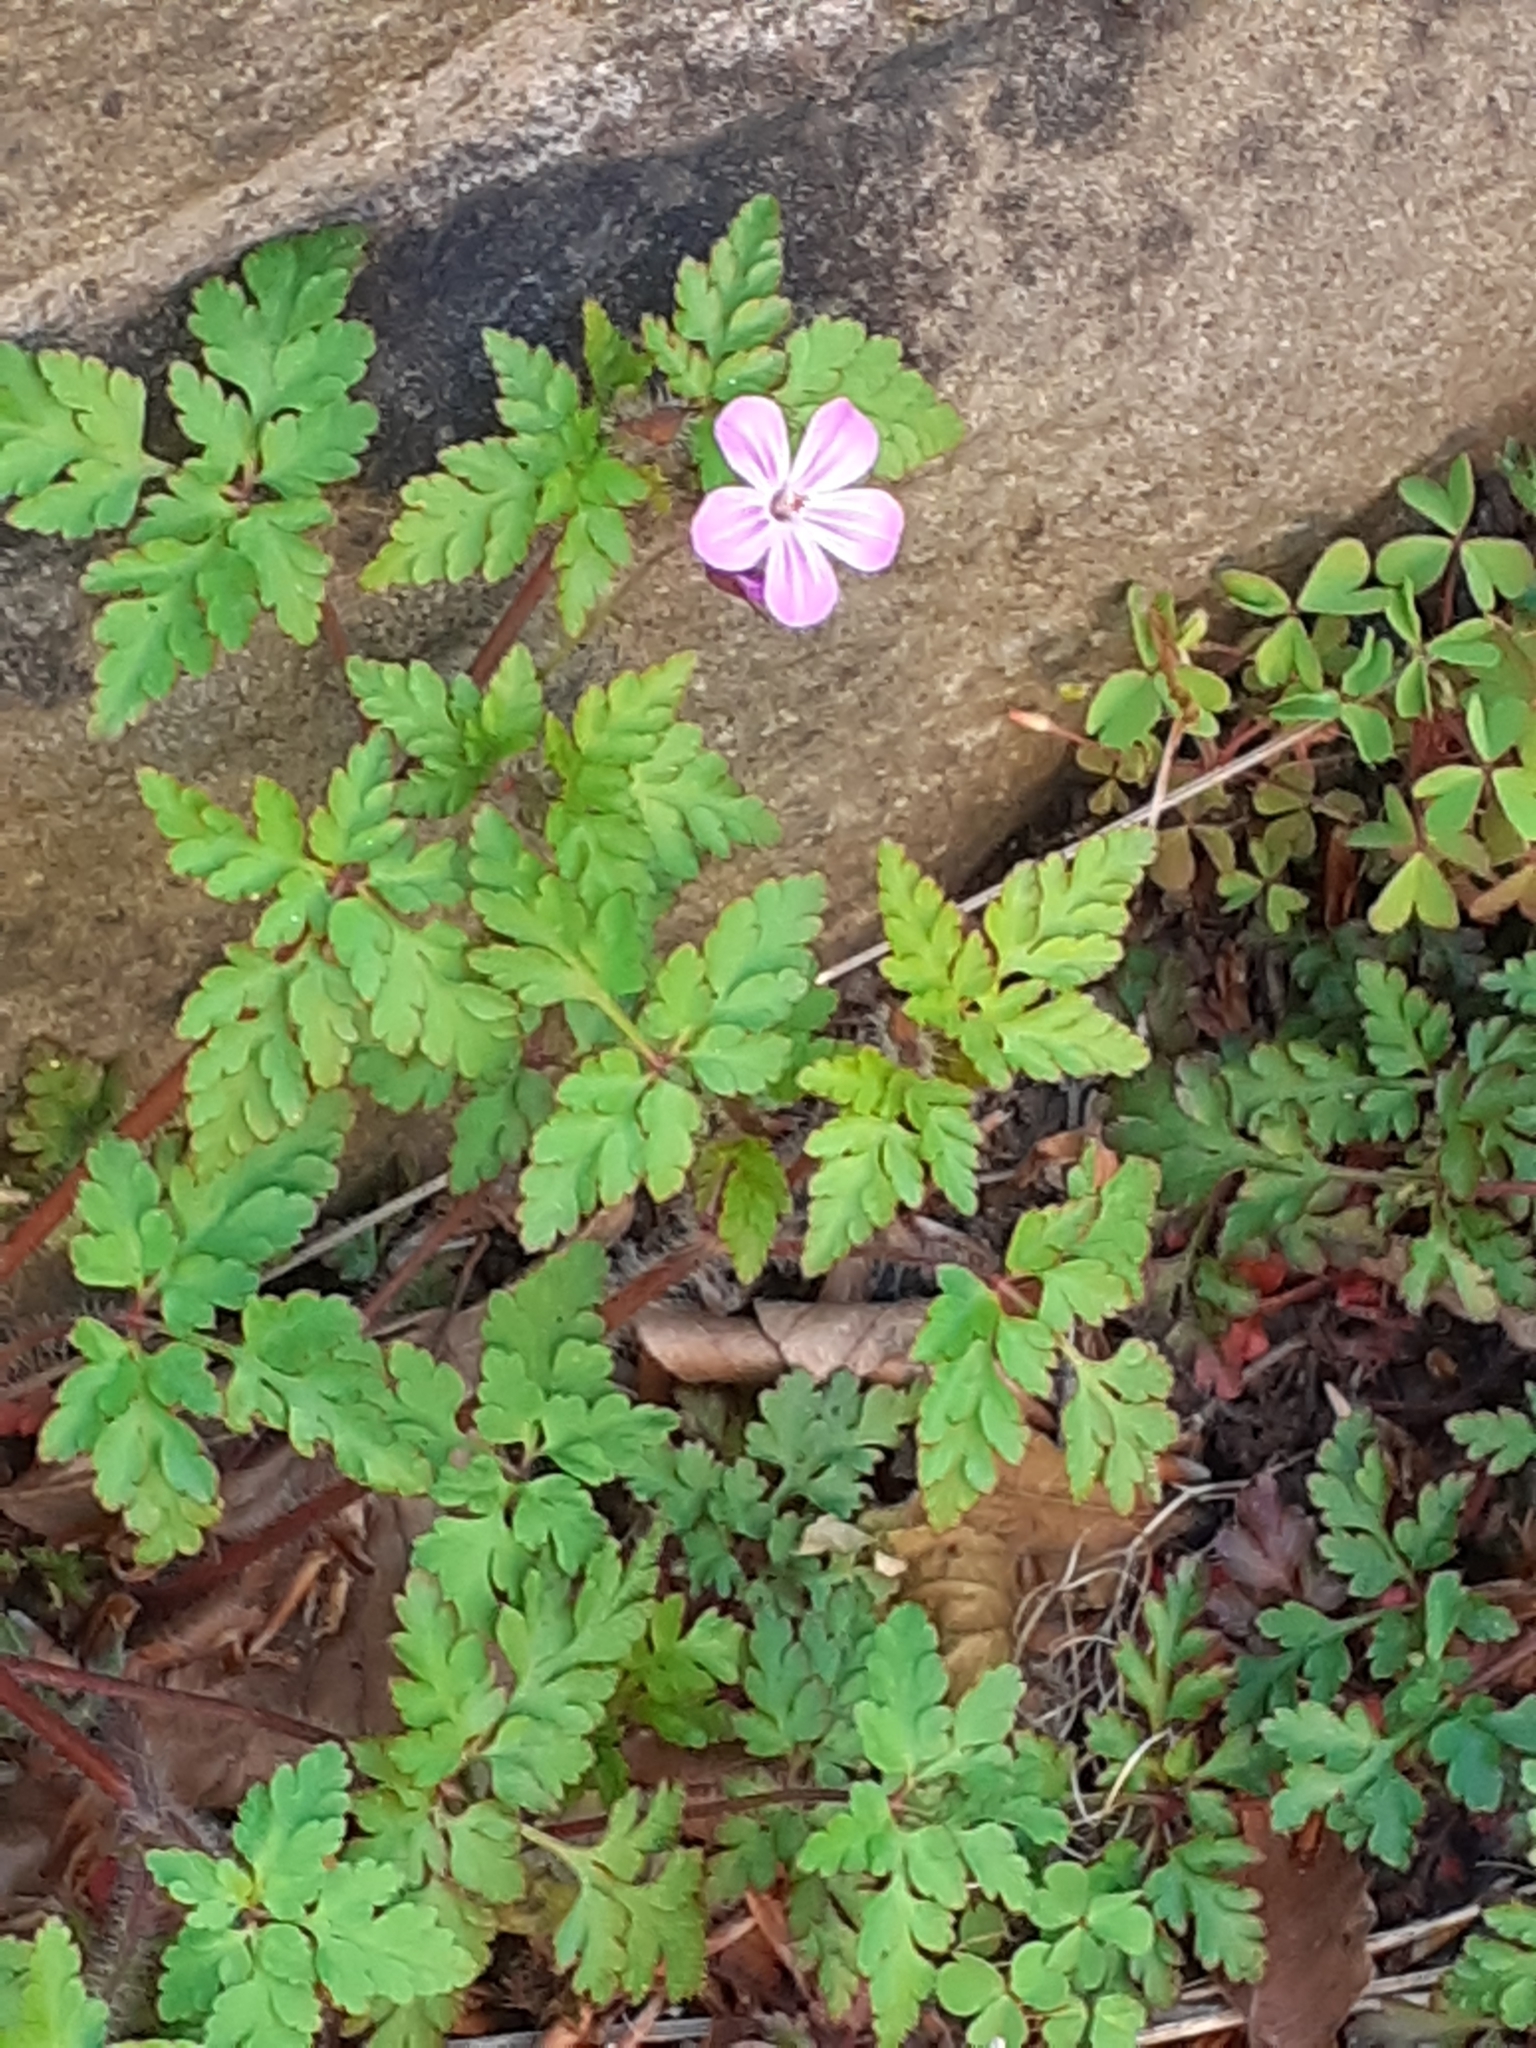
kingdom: Plantae
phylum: Tracheophyta
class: Magnoliopsida
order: Geraniales
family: Geraniaceae
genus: Geranium
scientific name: Geranium robertianum
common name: Herb-robert
